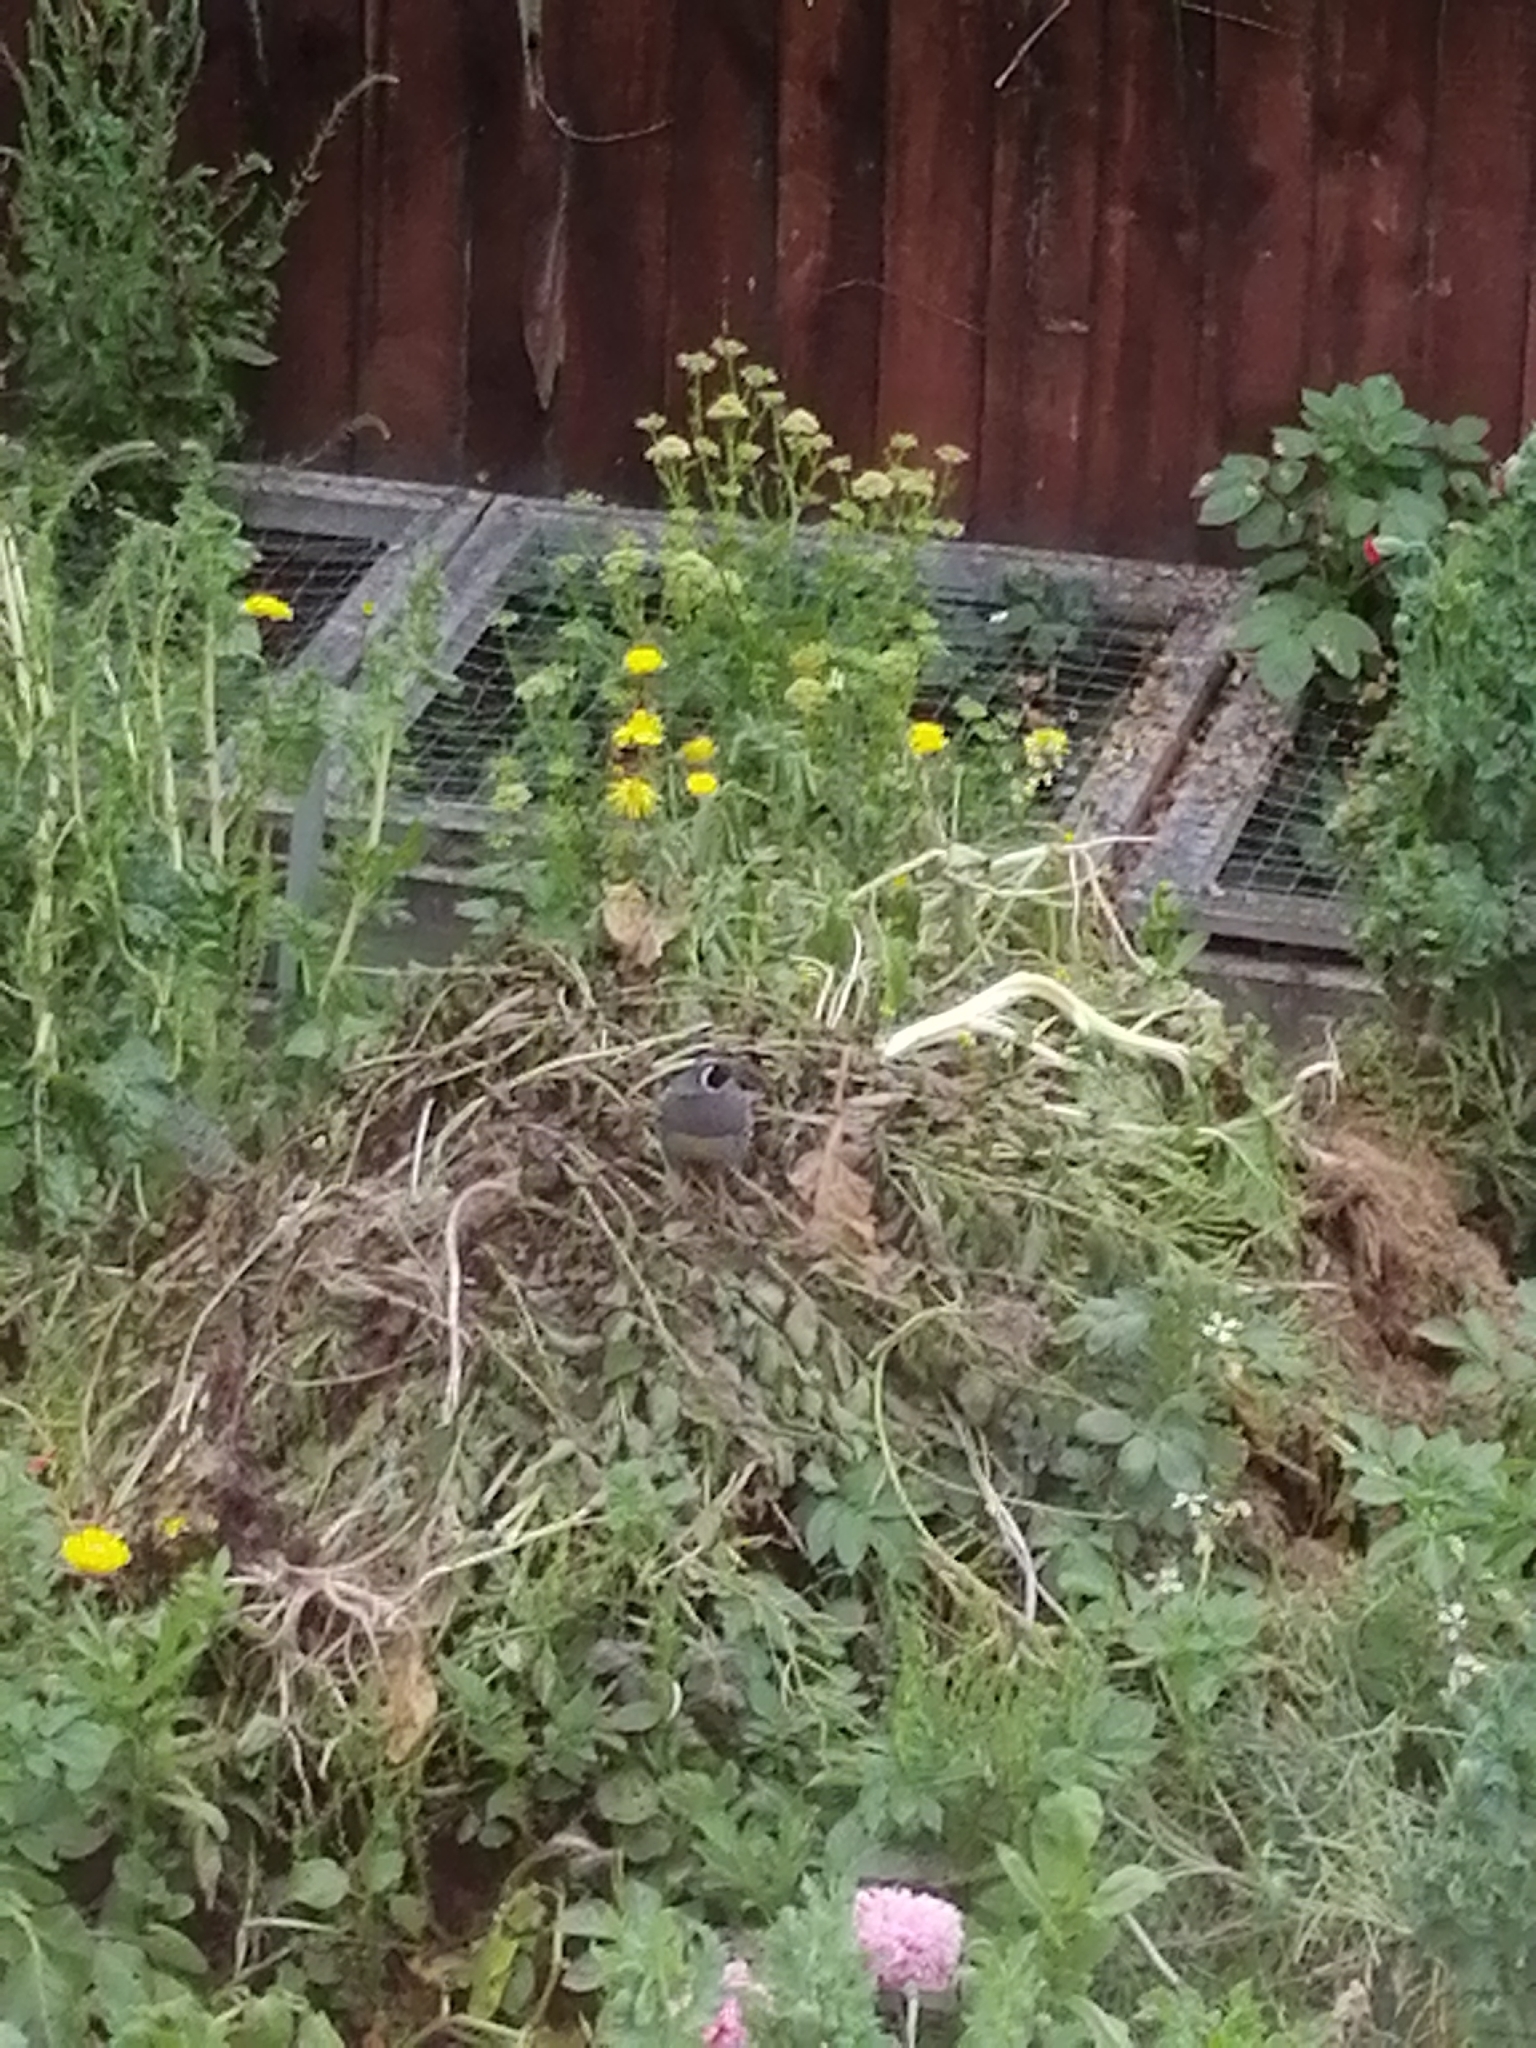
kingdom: Animalia
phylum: Chordata
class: Aves
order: Galliformes
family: Odontophoridae
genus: Callipepla
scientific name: Callipepla californica
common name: California quail
